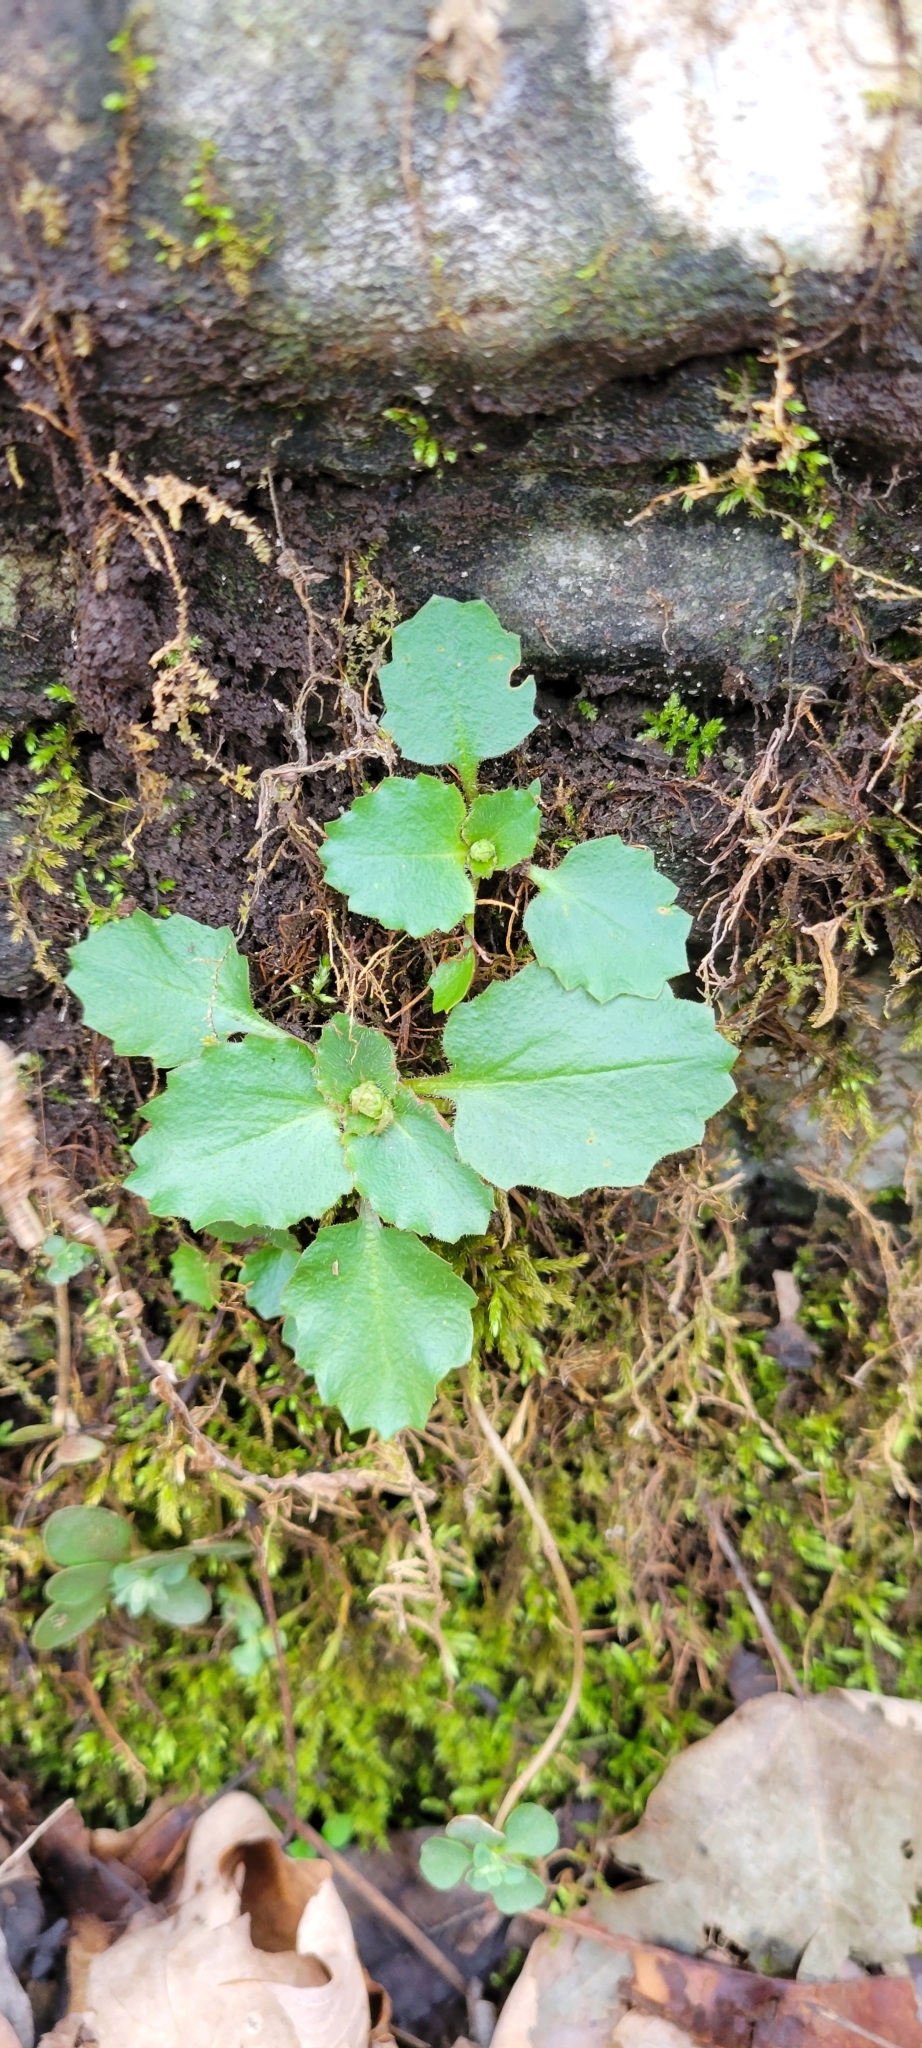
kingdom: Plantae
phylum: Tracheophyta
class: Magnoliopsida
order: Saxifragales
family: Saxifragaceae
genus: Micranthes
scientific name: Micranthes virginiensis
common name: Early saxifrage
